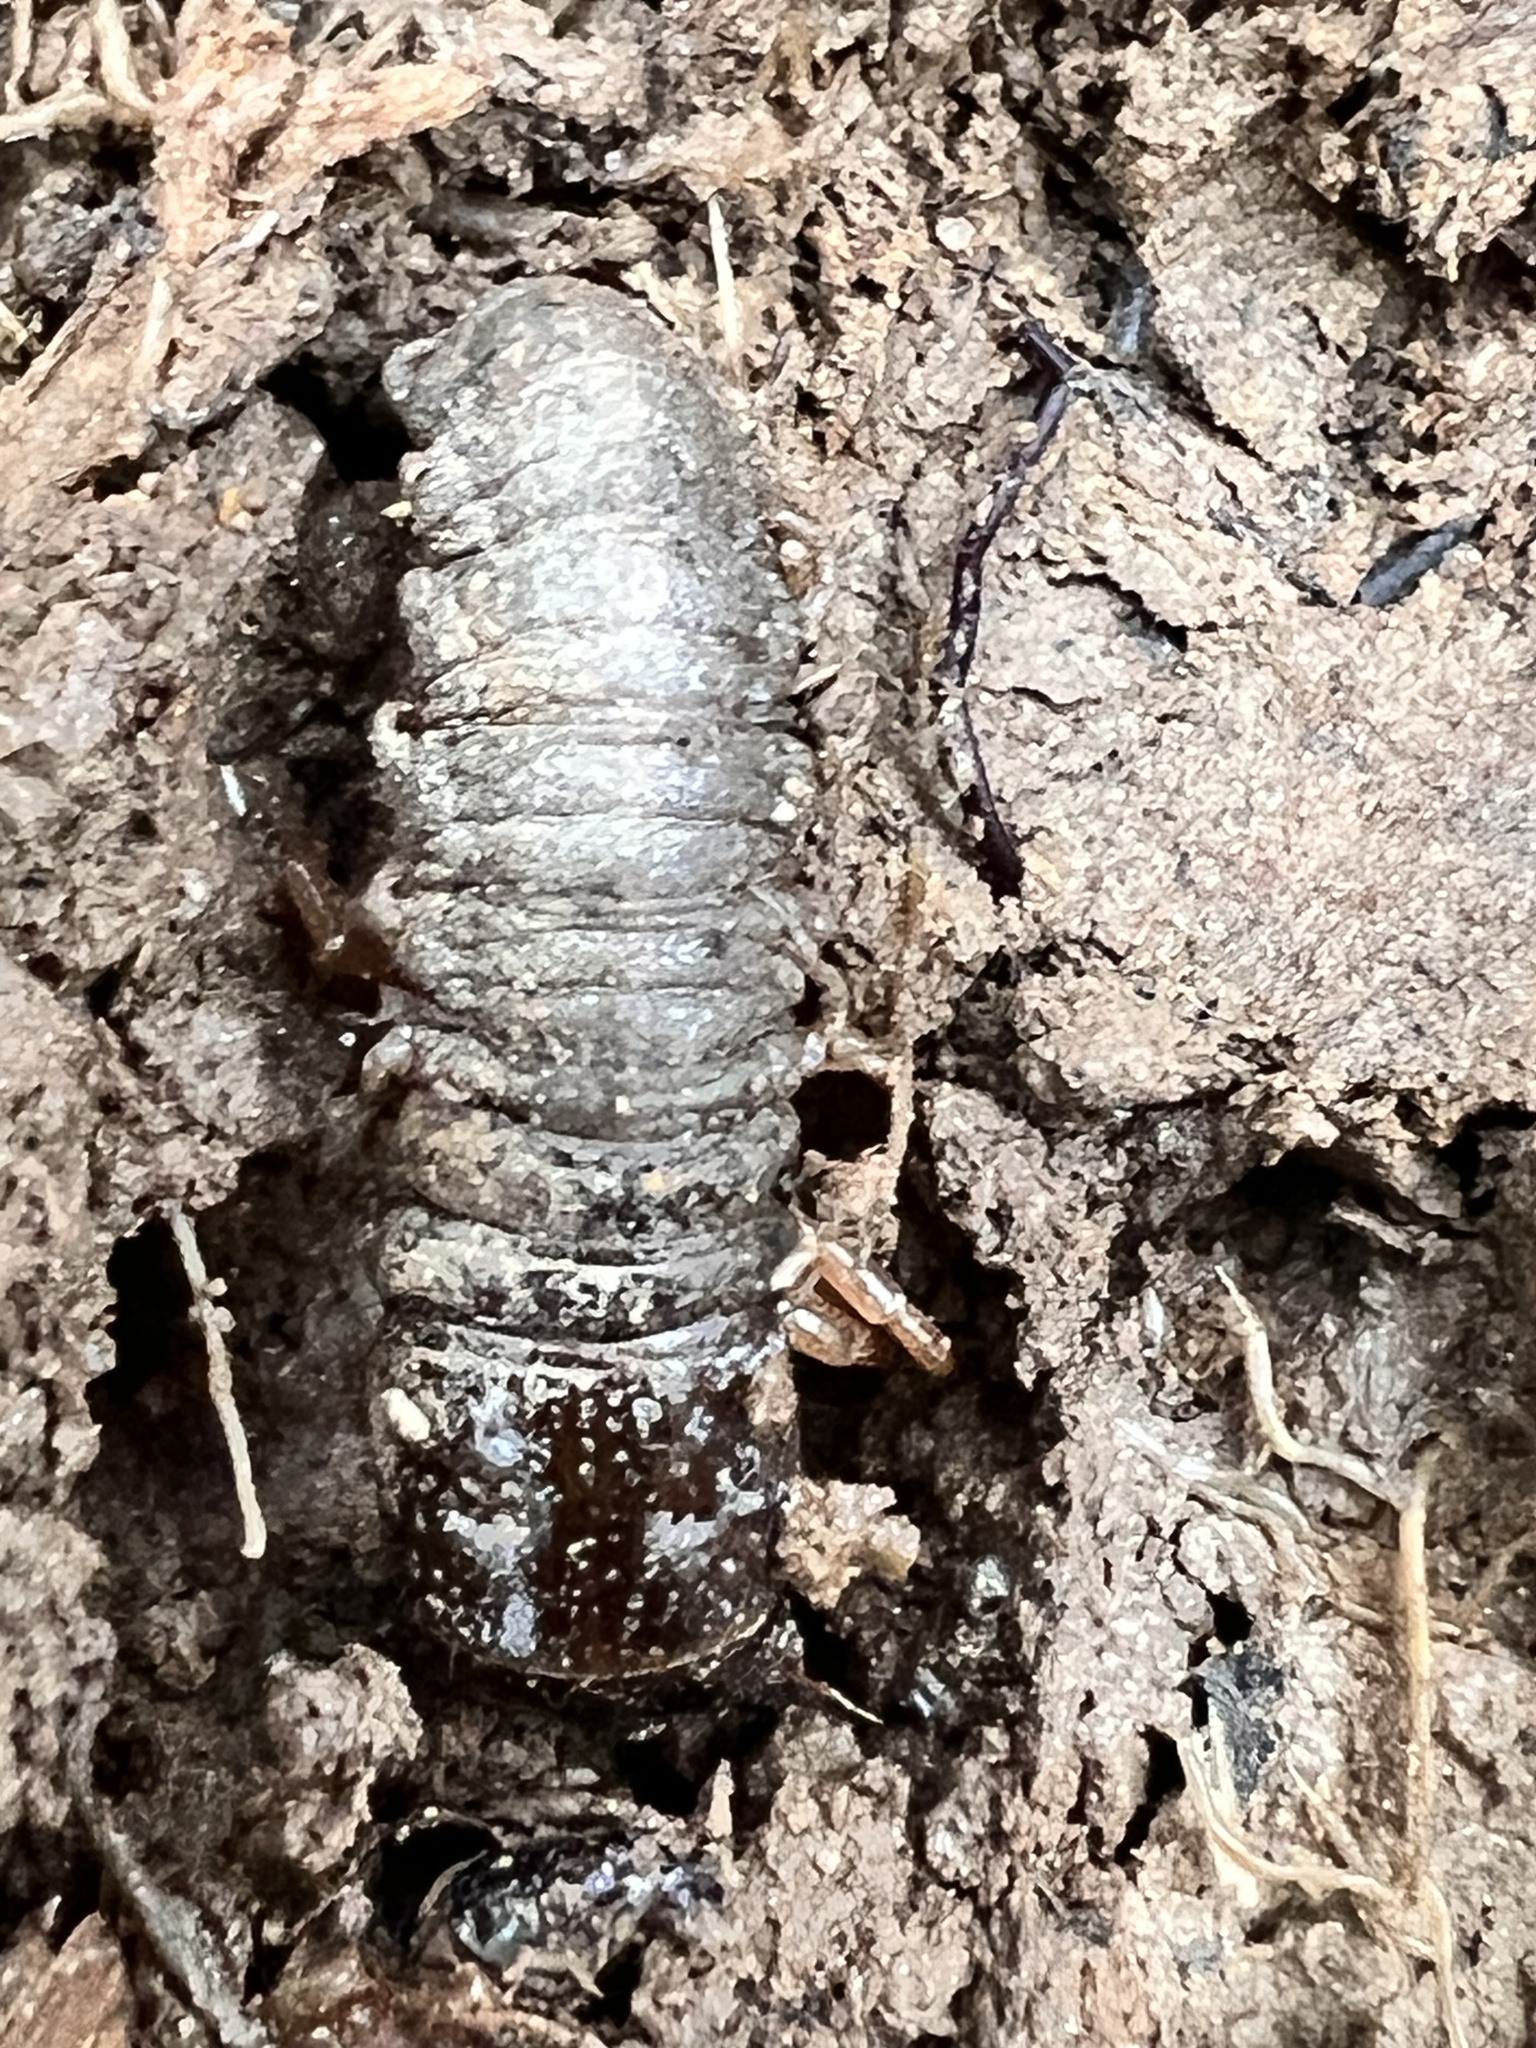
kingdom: Animalia
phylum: Arthropoda
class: Insecta
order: Megaloptera
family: Corydalidae
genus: Nigronia
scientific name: Nigronia
